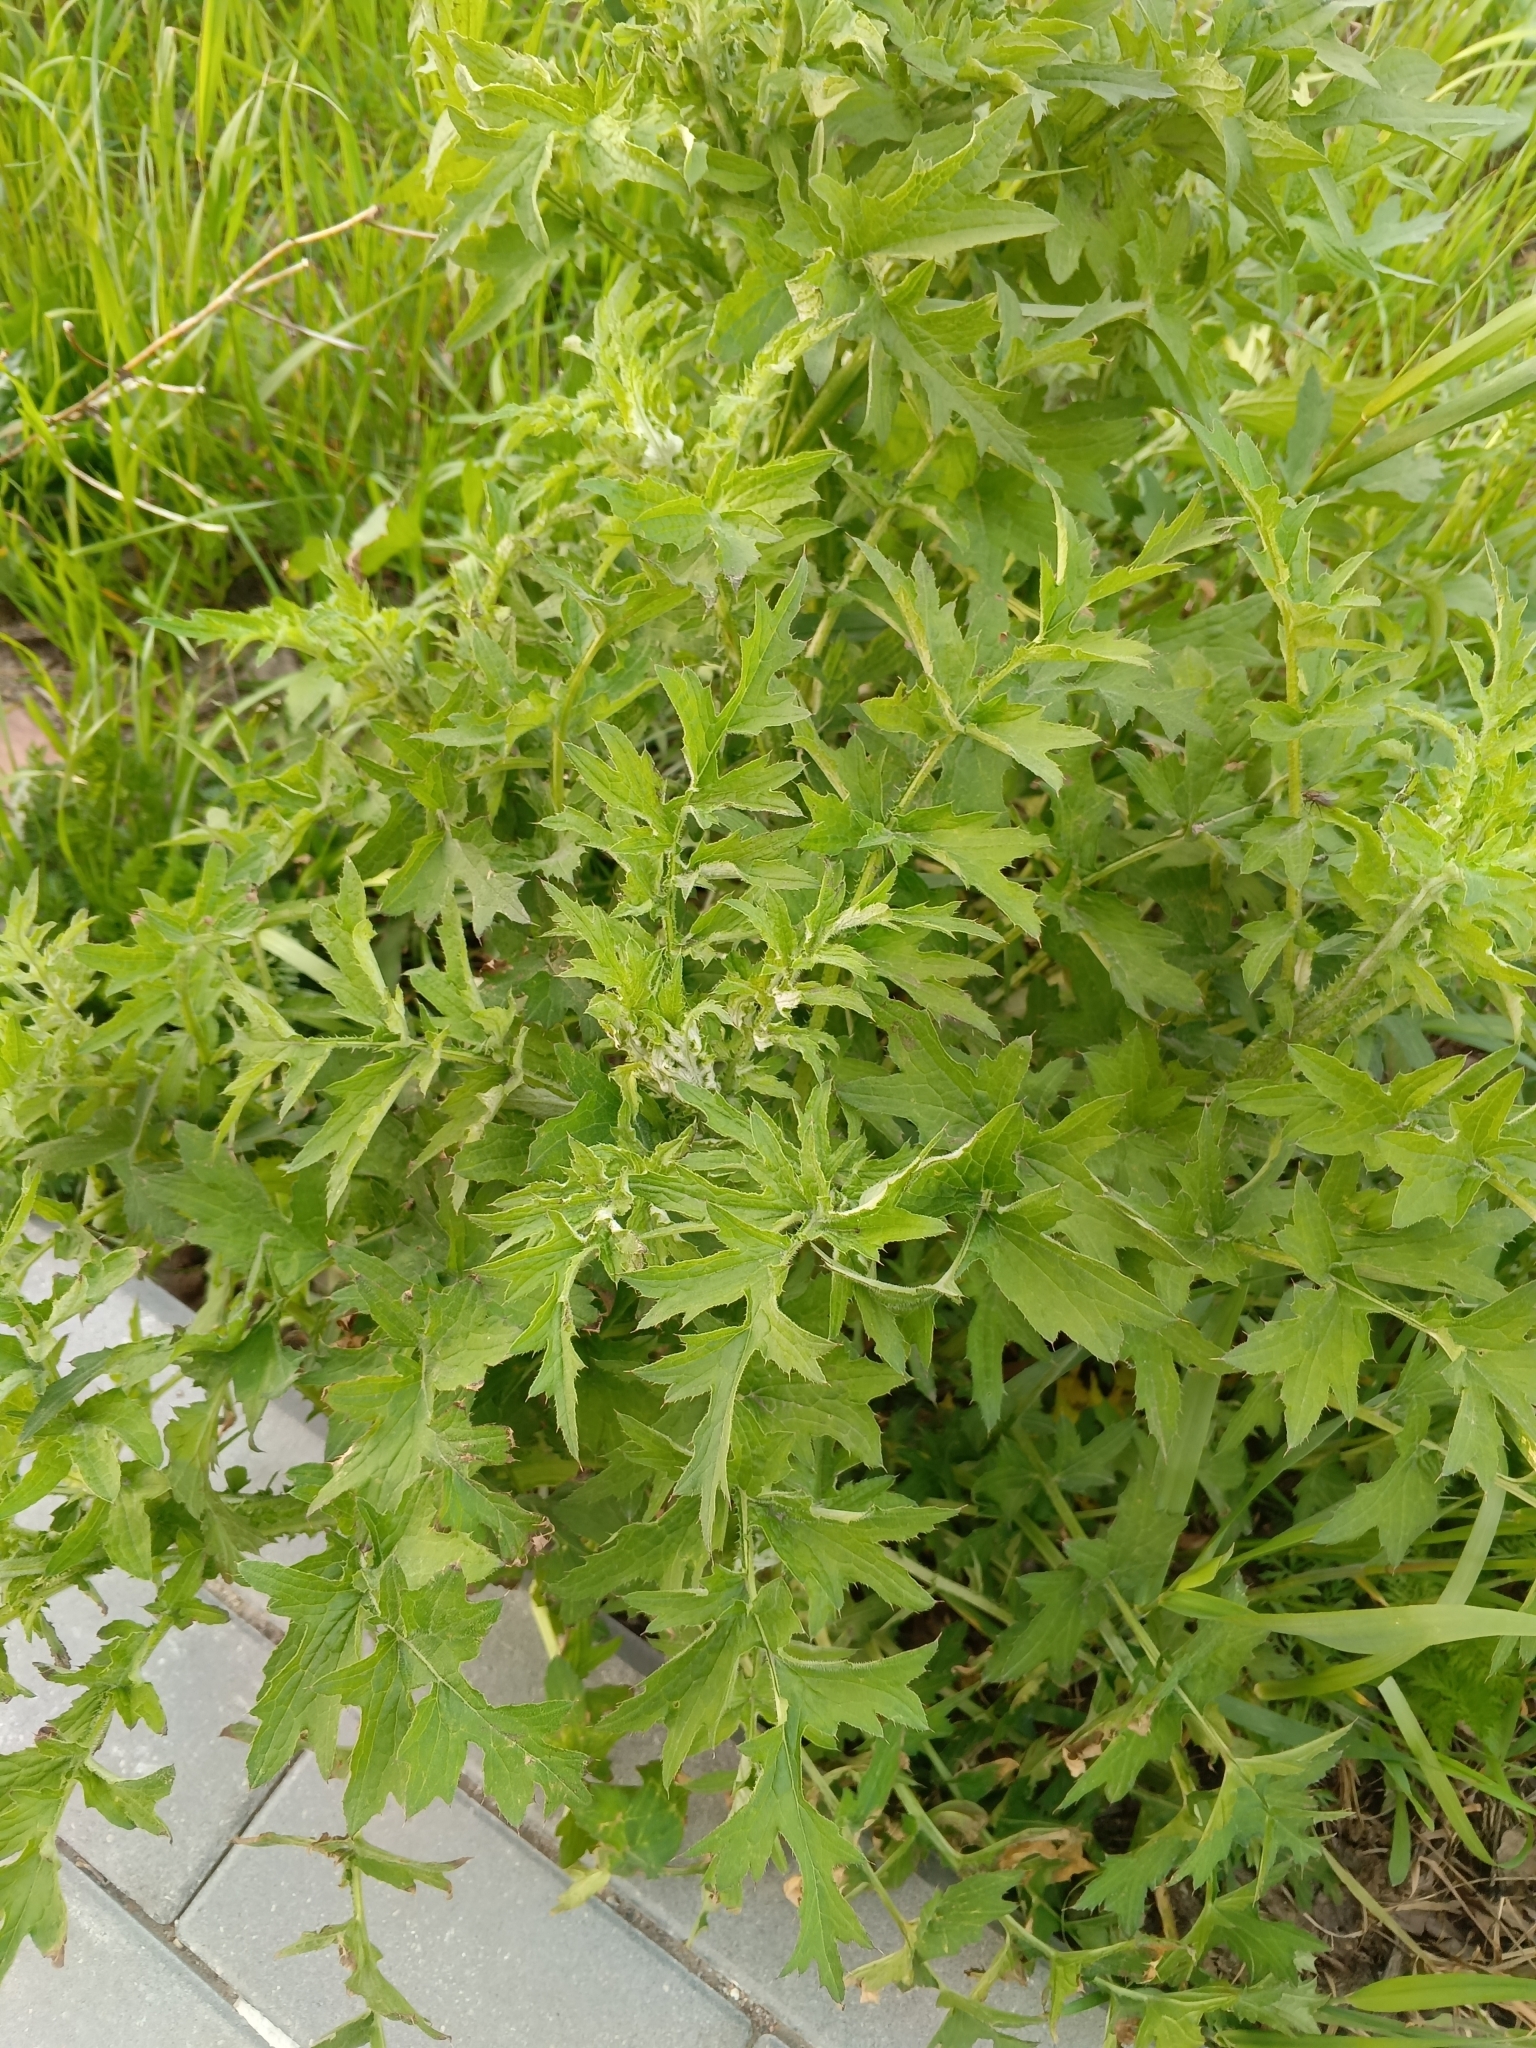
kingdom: Plantae
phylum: Tracheophyta
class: Magnoliopsida
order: Asterales
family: Asteraceae
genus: Carduus
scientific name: Carduus crispus
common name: Welted thistle
